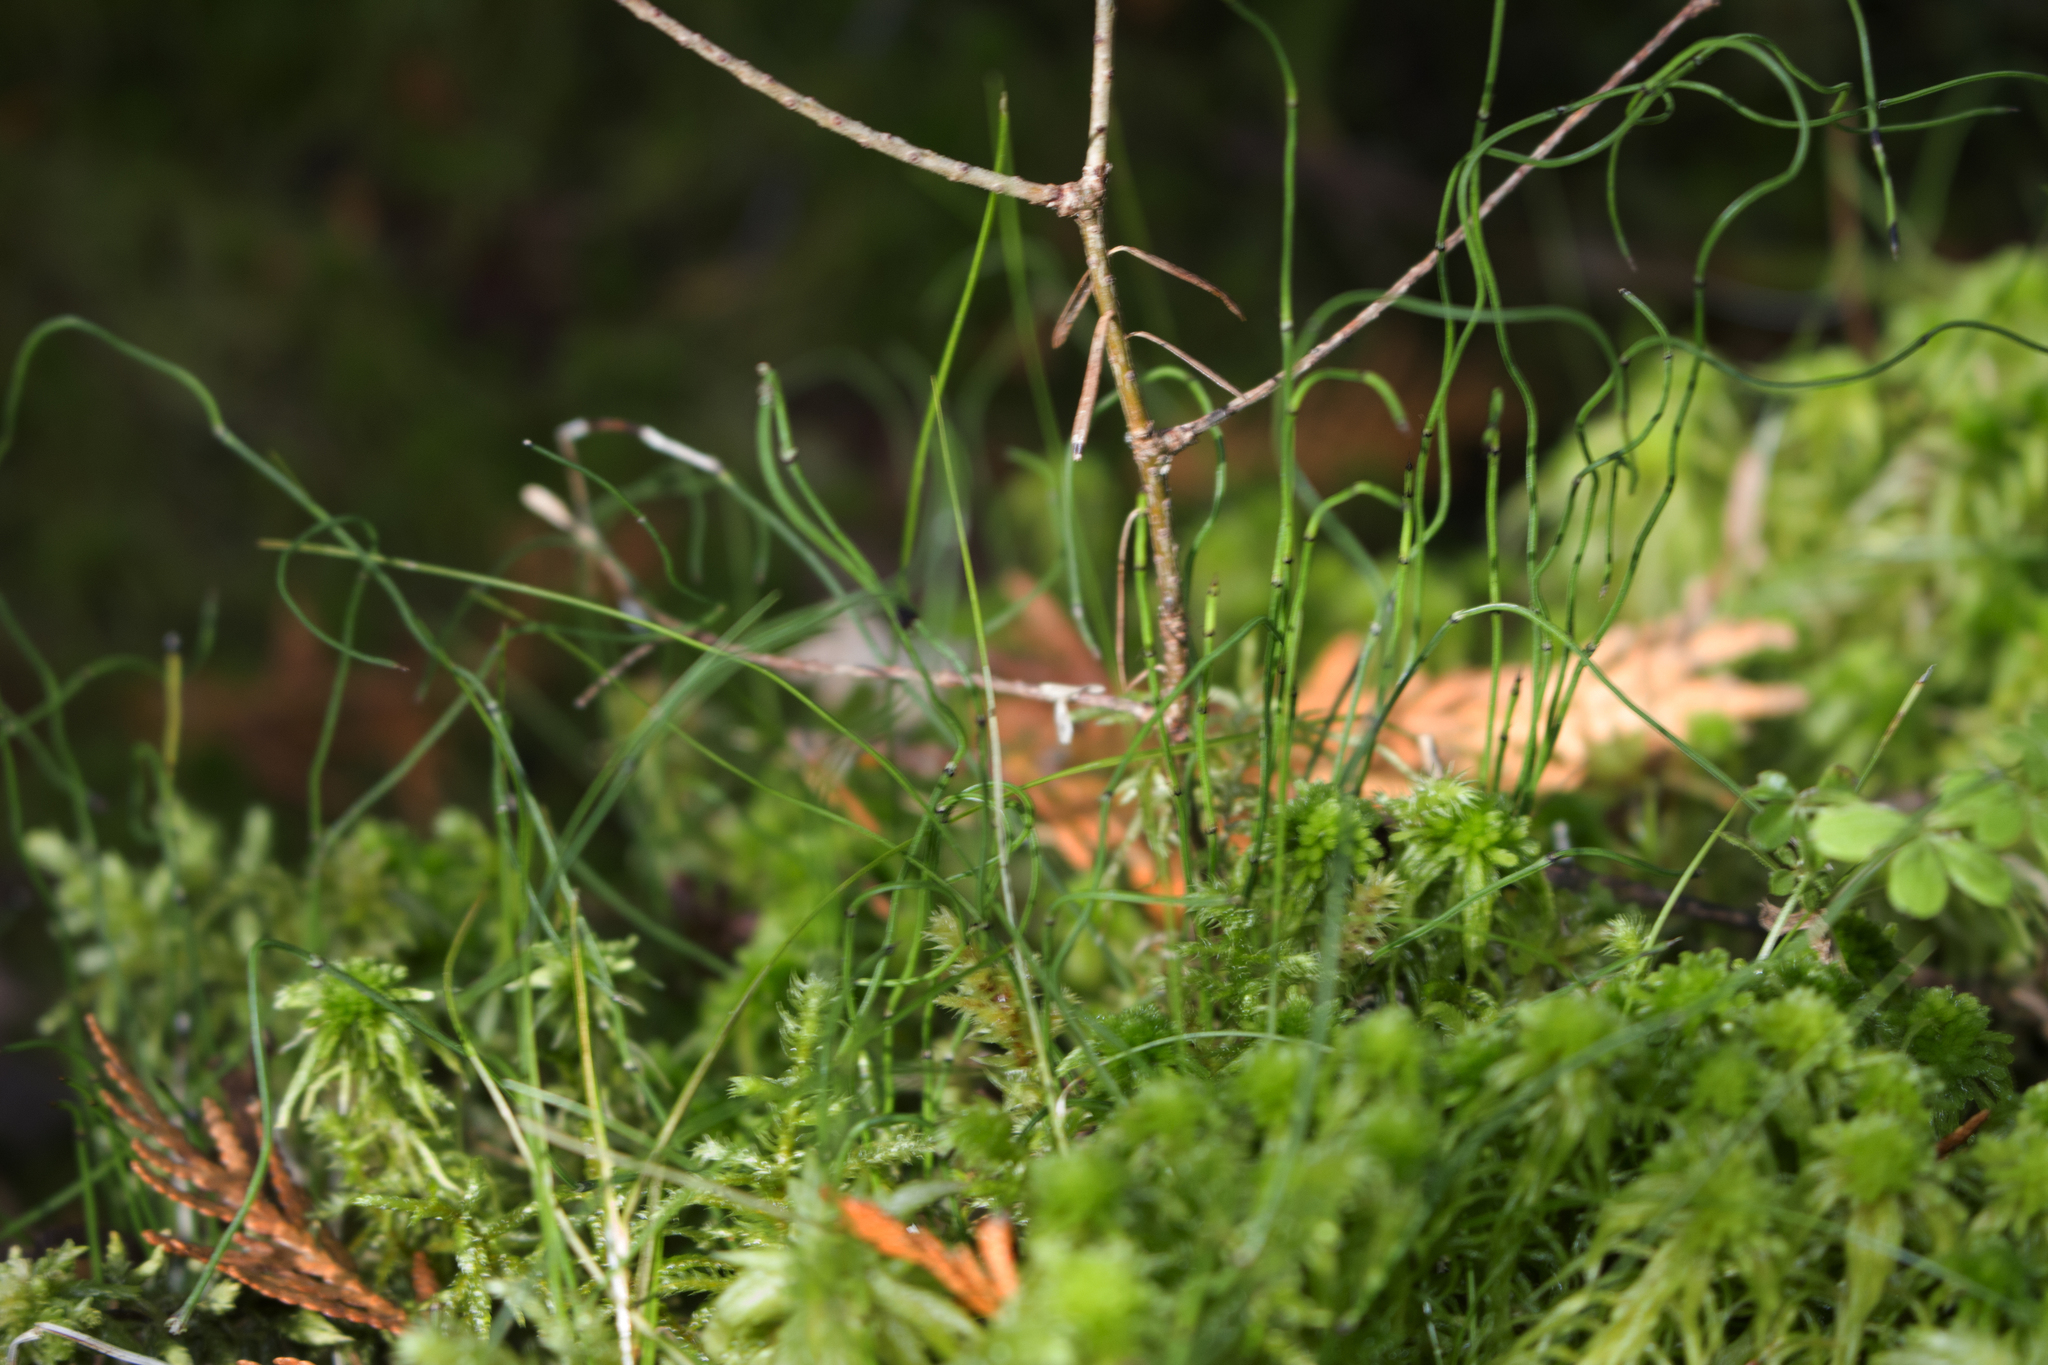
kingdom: Plantae
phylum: Tracheophyta
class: Polypodiopsida
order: Equisetales
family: Equisetaceae
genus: Equisetum
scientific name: Equisetum scirpoides
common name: Delicate horsetail
